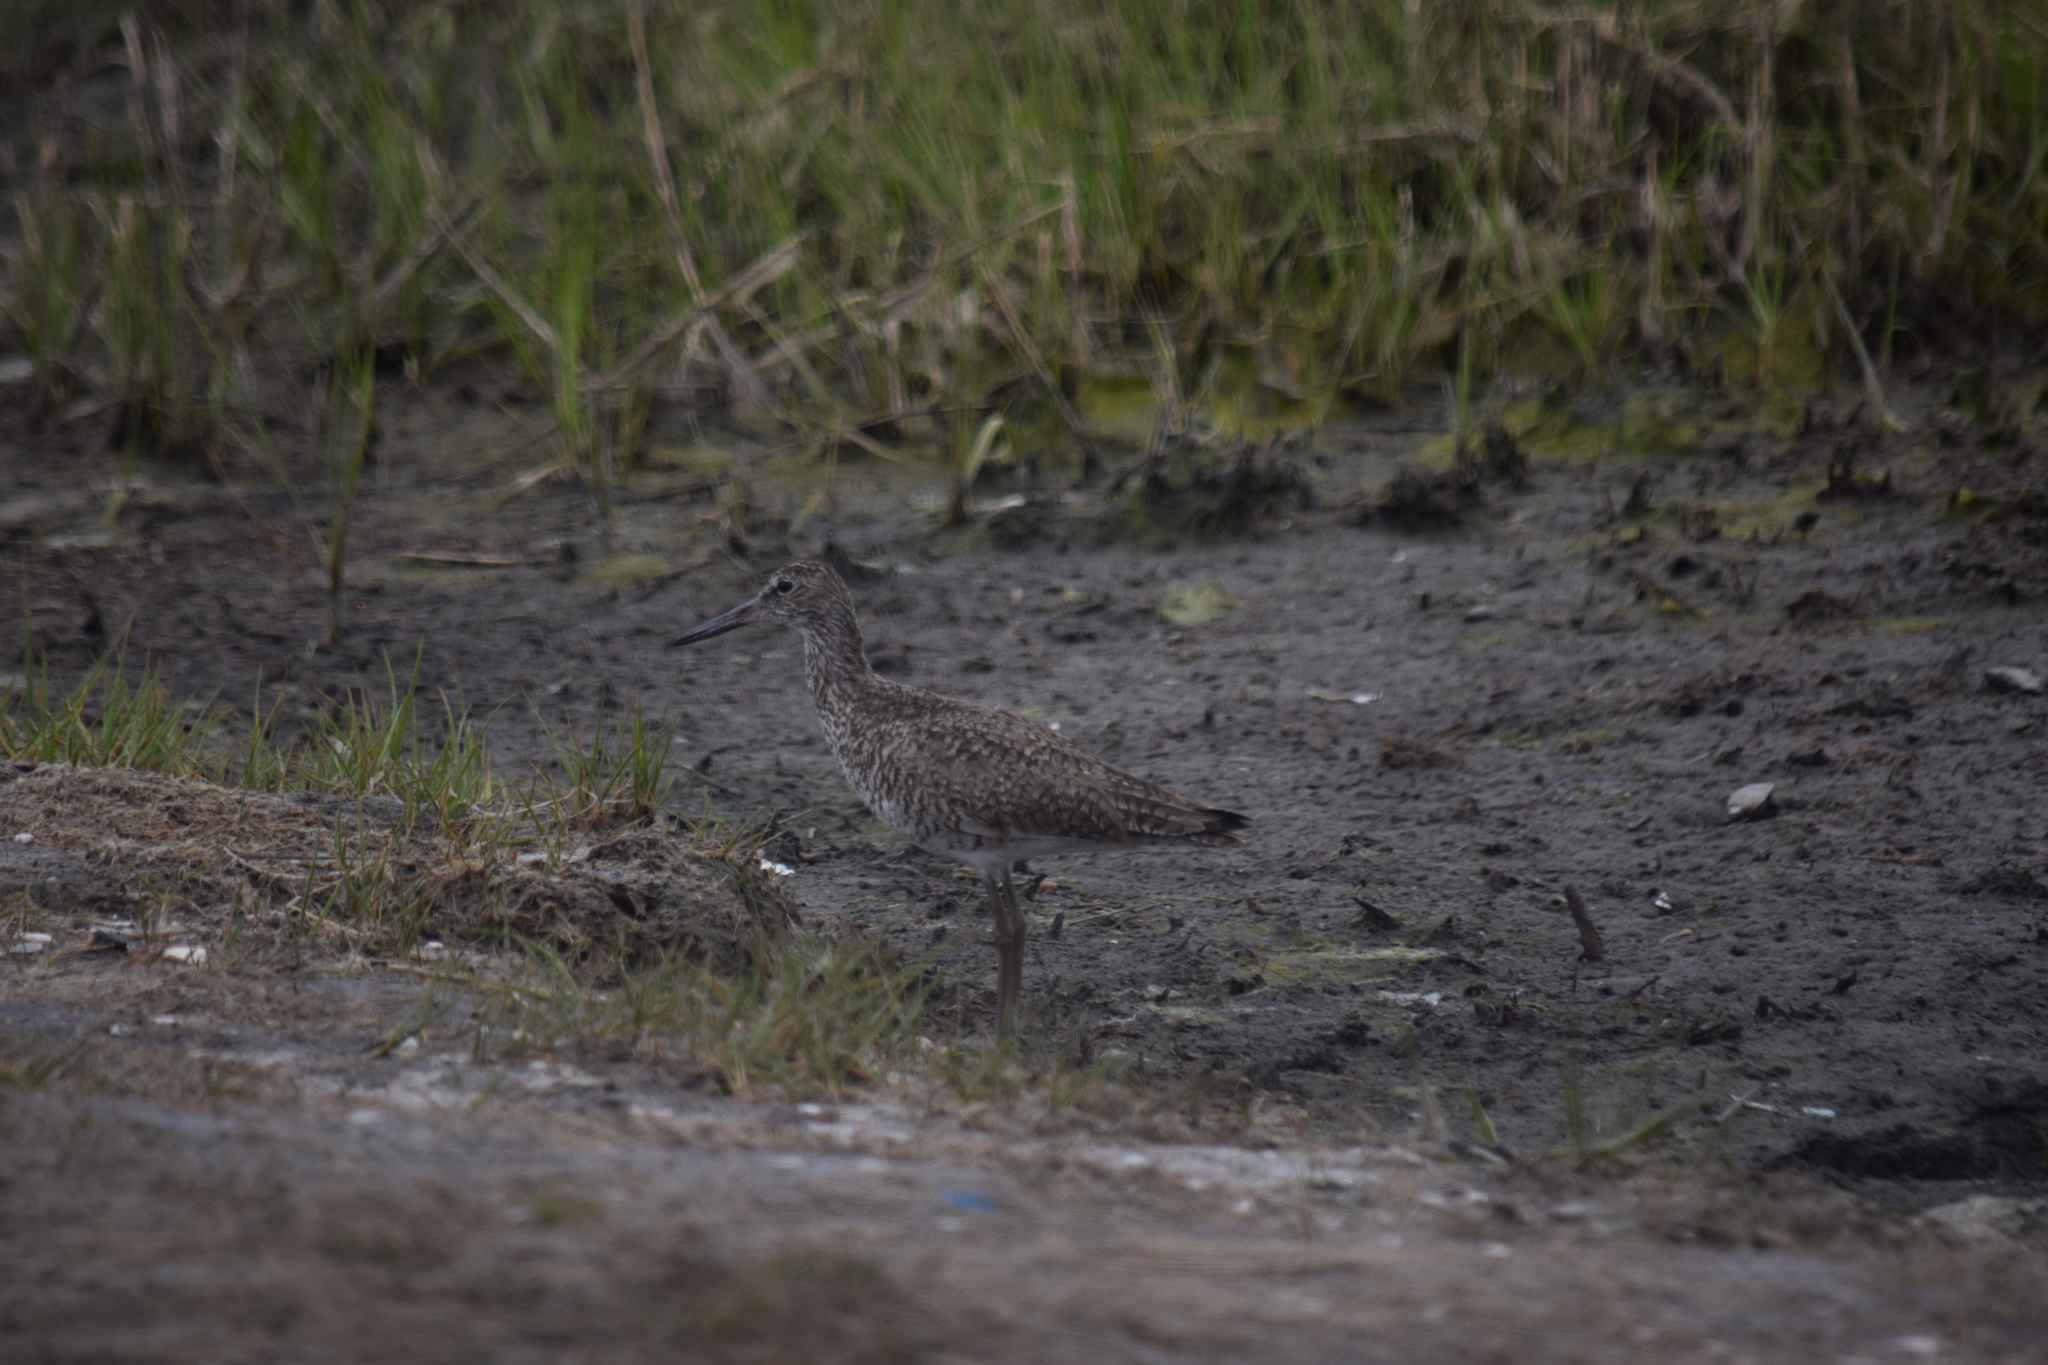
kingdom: Animalia
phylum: Chordata
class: Aves
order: Charadriiformes
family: Scolopacidae
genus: Tringa
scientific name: Tringa semipalmata
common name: Willet
